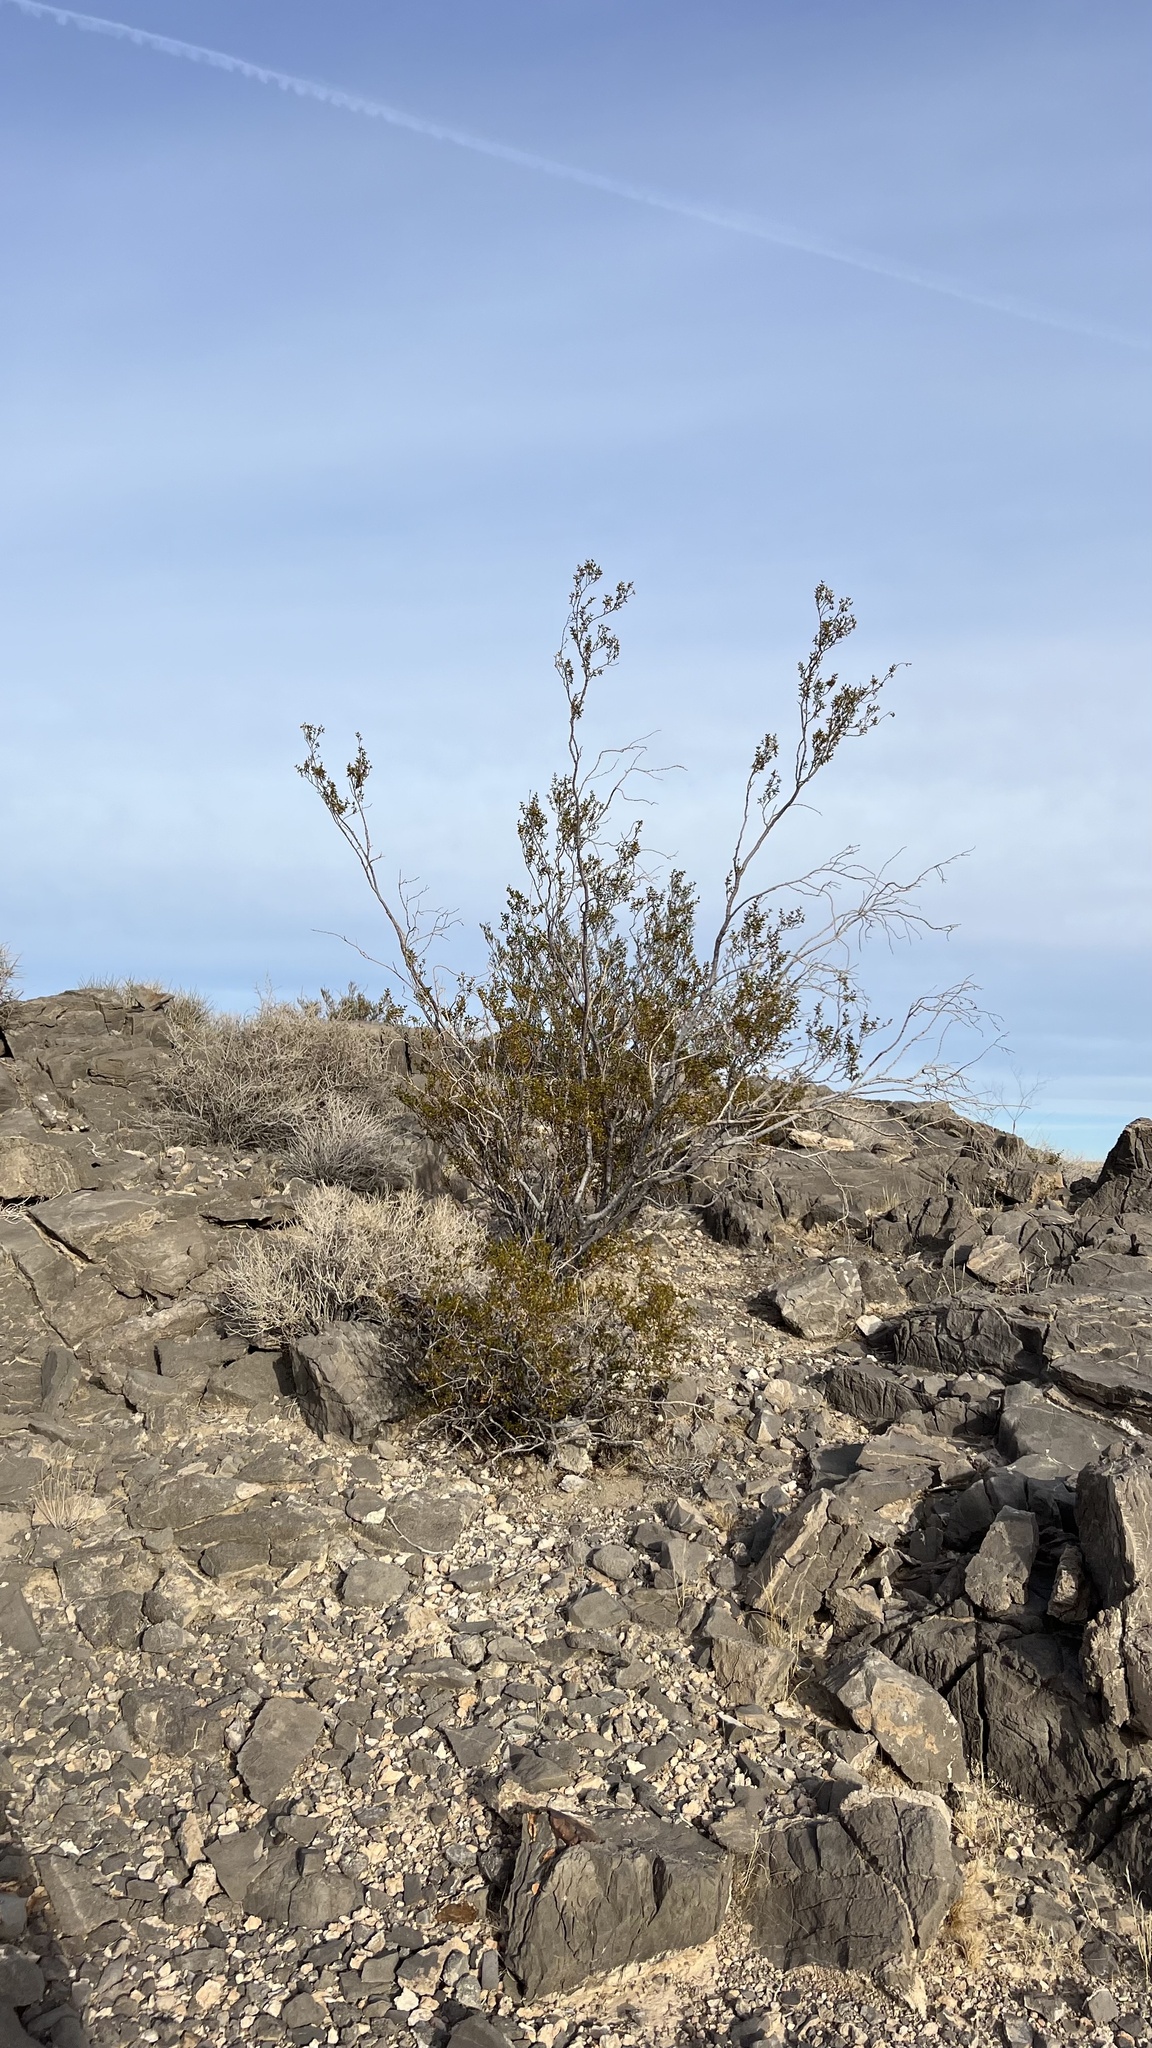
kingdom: Plantae
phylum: Tracheophyta
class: Magnoliopsida
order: Zygophyllales
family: Zygophyllaceae
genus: Larrea
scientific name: Larrea tridentata
